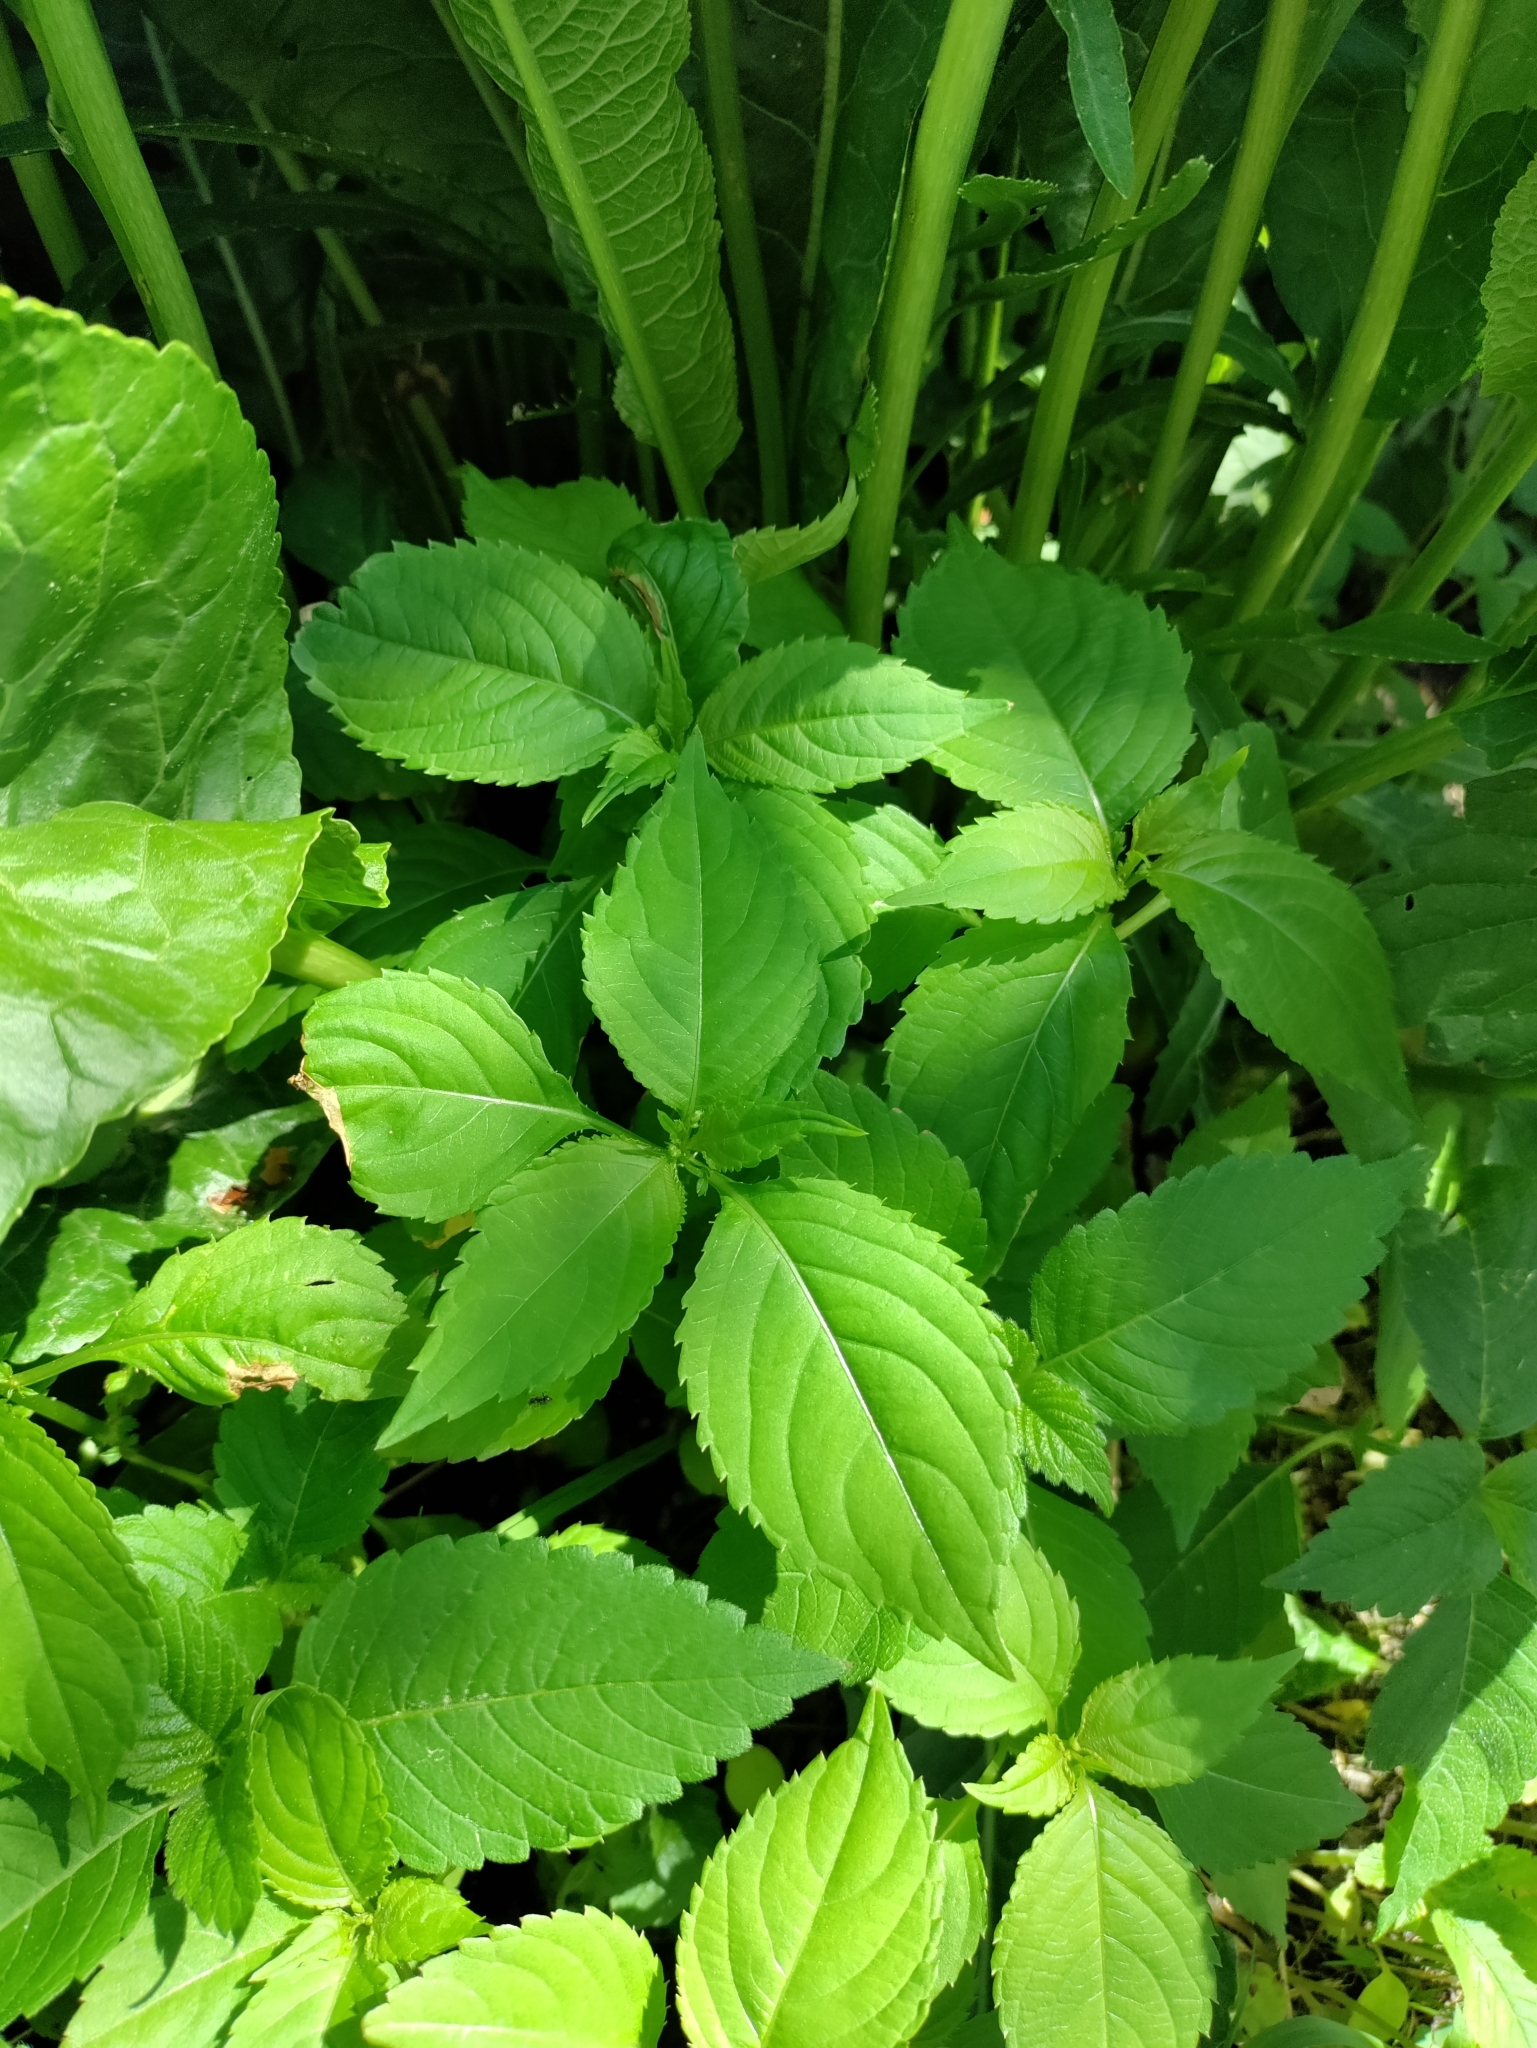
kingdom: Plantae
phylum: Tracheophyta
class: Magnoliopsida
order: Ericales
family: Balsaminaceae
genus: Impatiens
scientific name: Impatiens parviflora
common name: Small balsam
